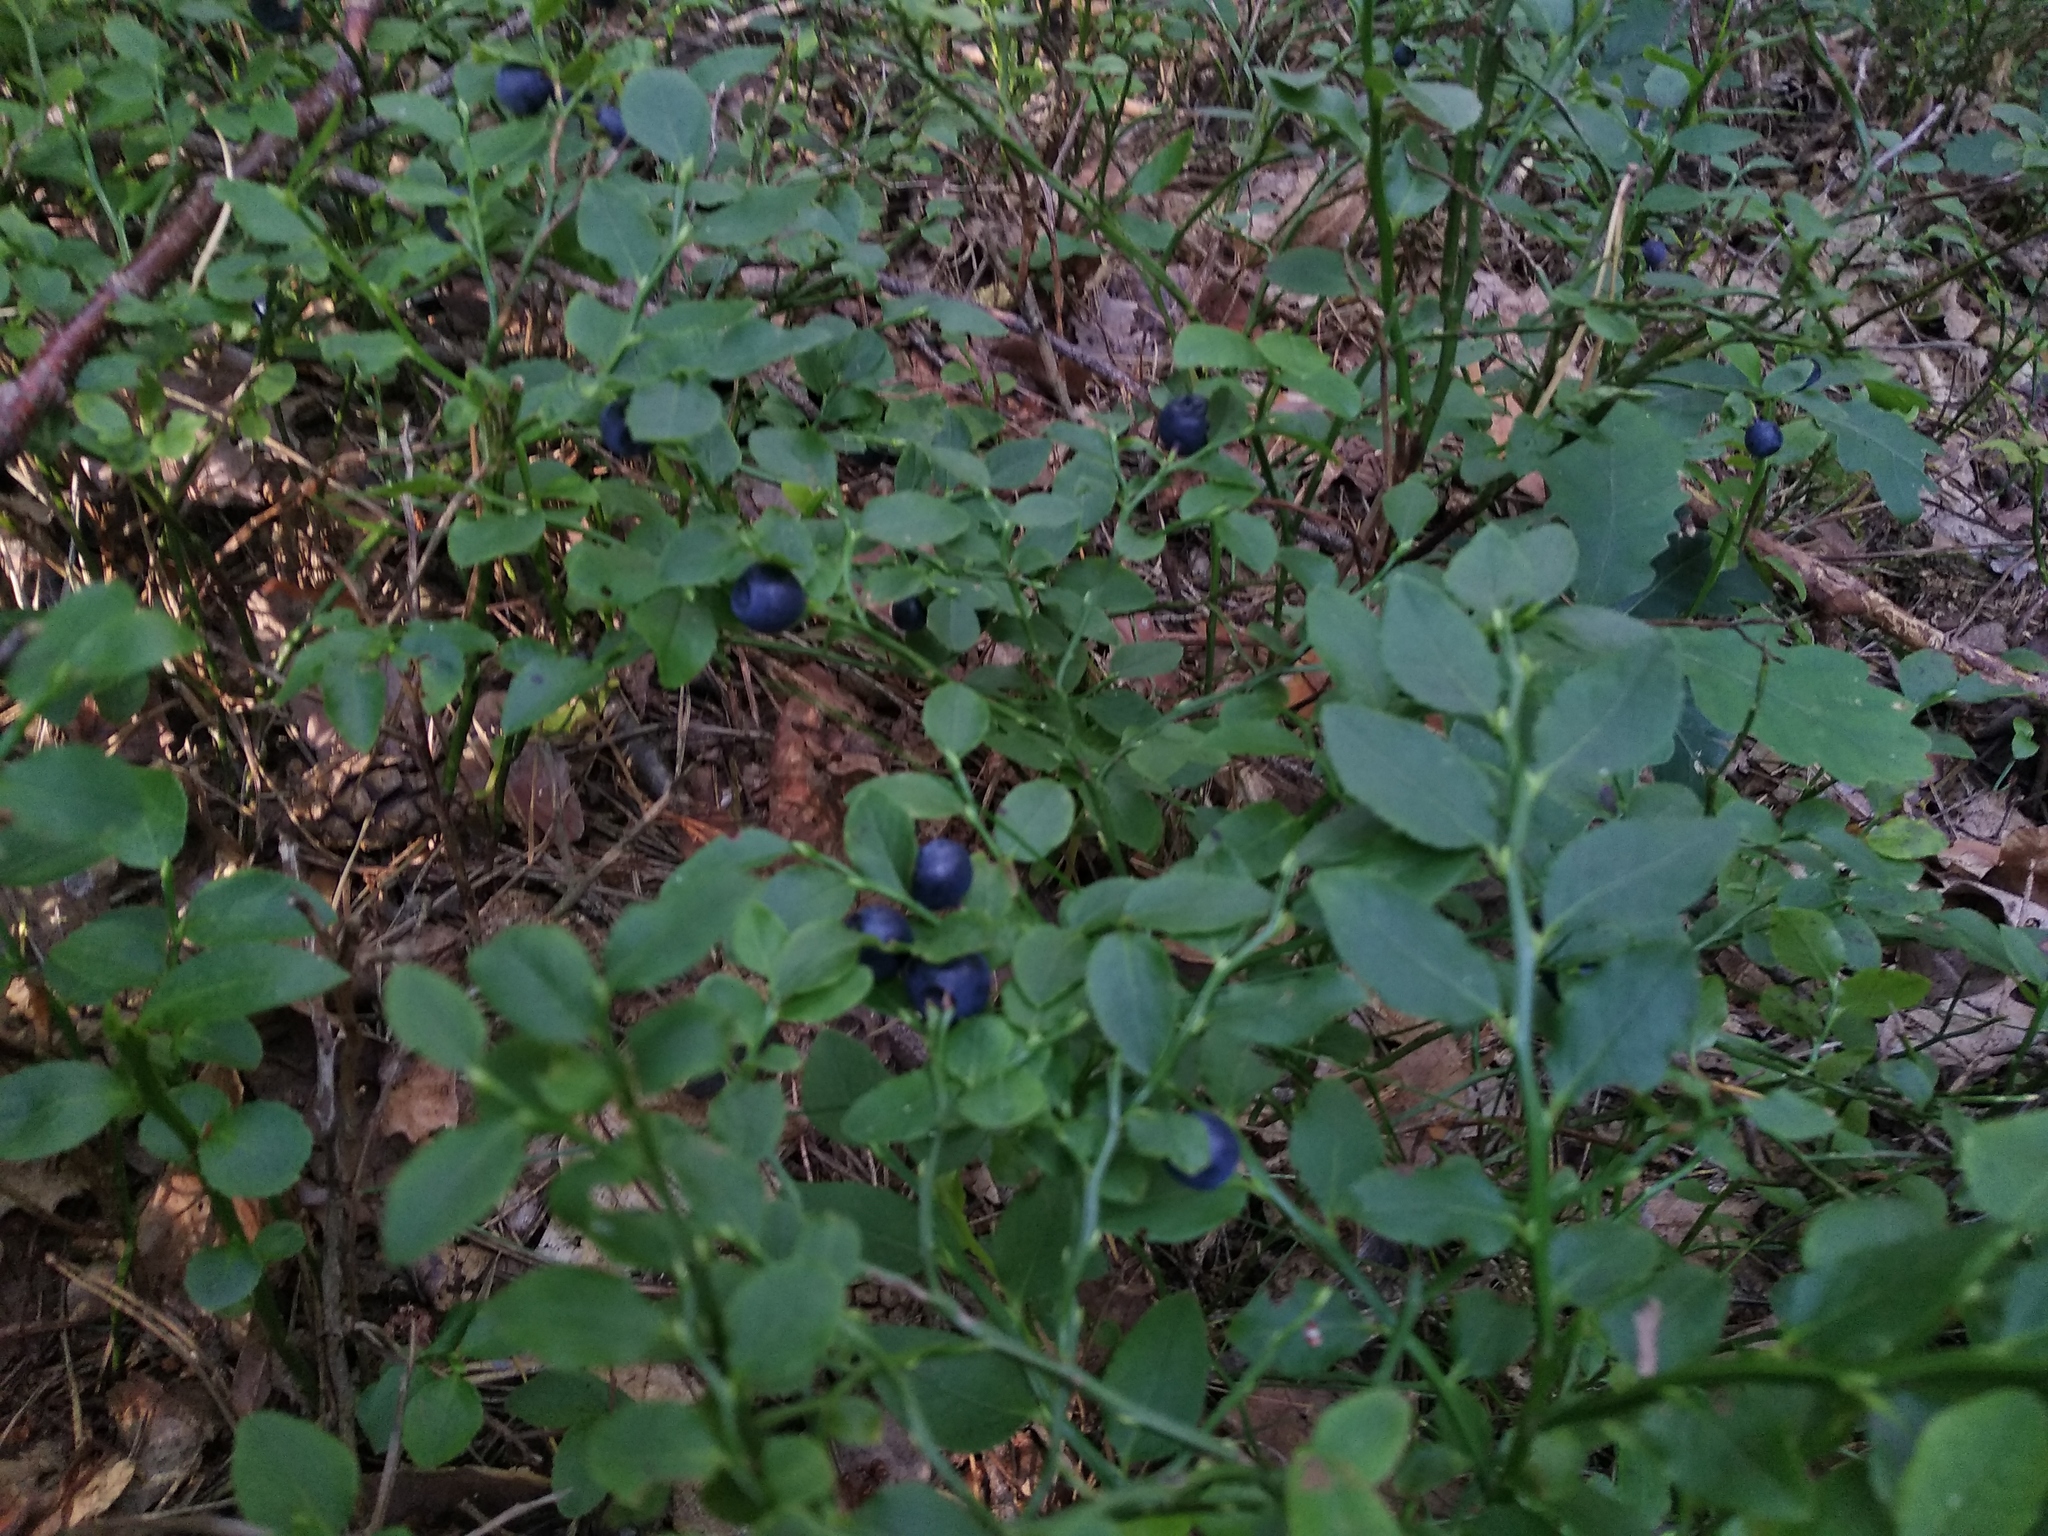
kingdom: Plantae
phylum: Tracheophyta
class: Magnoliopsida
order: Ericales
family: Ericaceae
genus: Vaccinium
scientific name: Vaccinium myrtillus
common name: Bilberry
